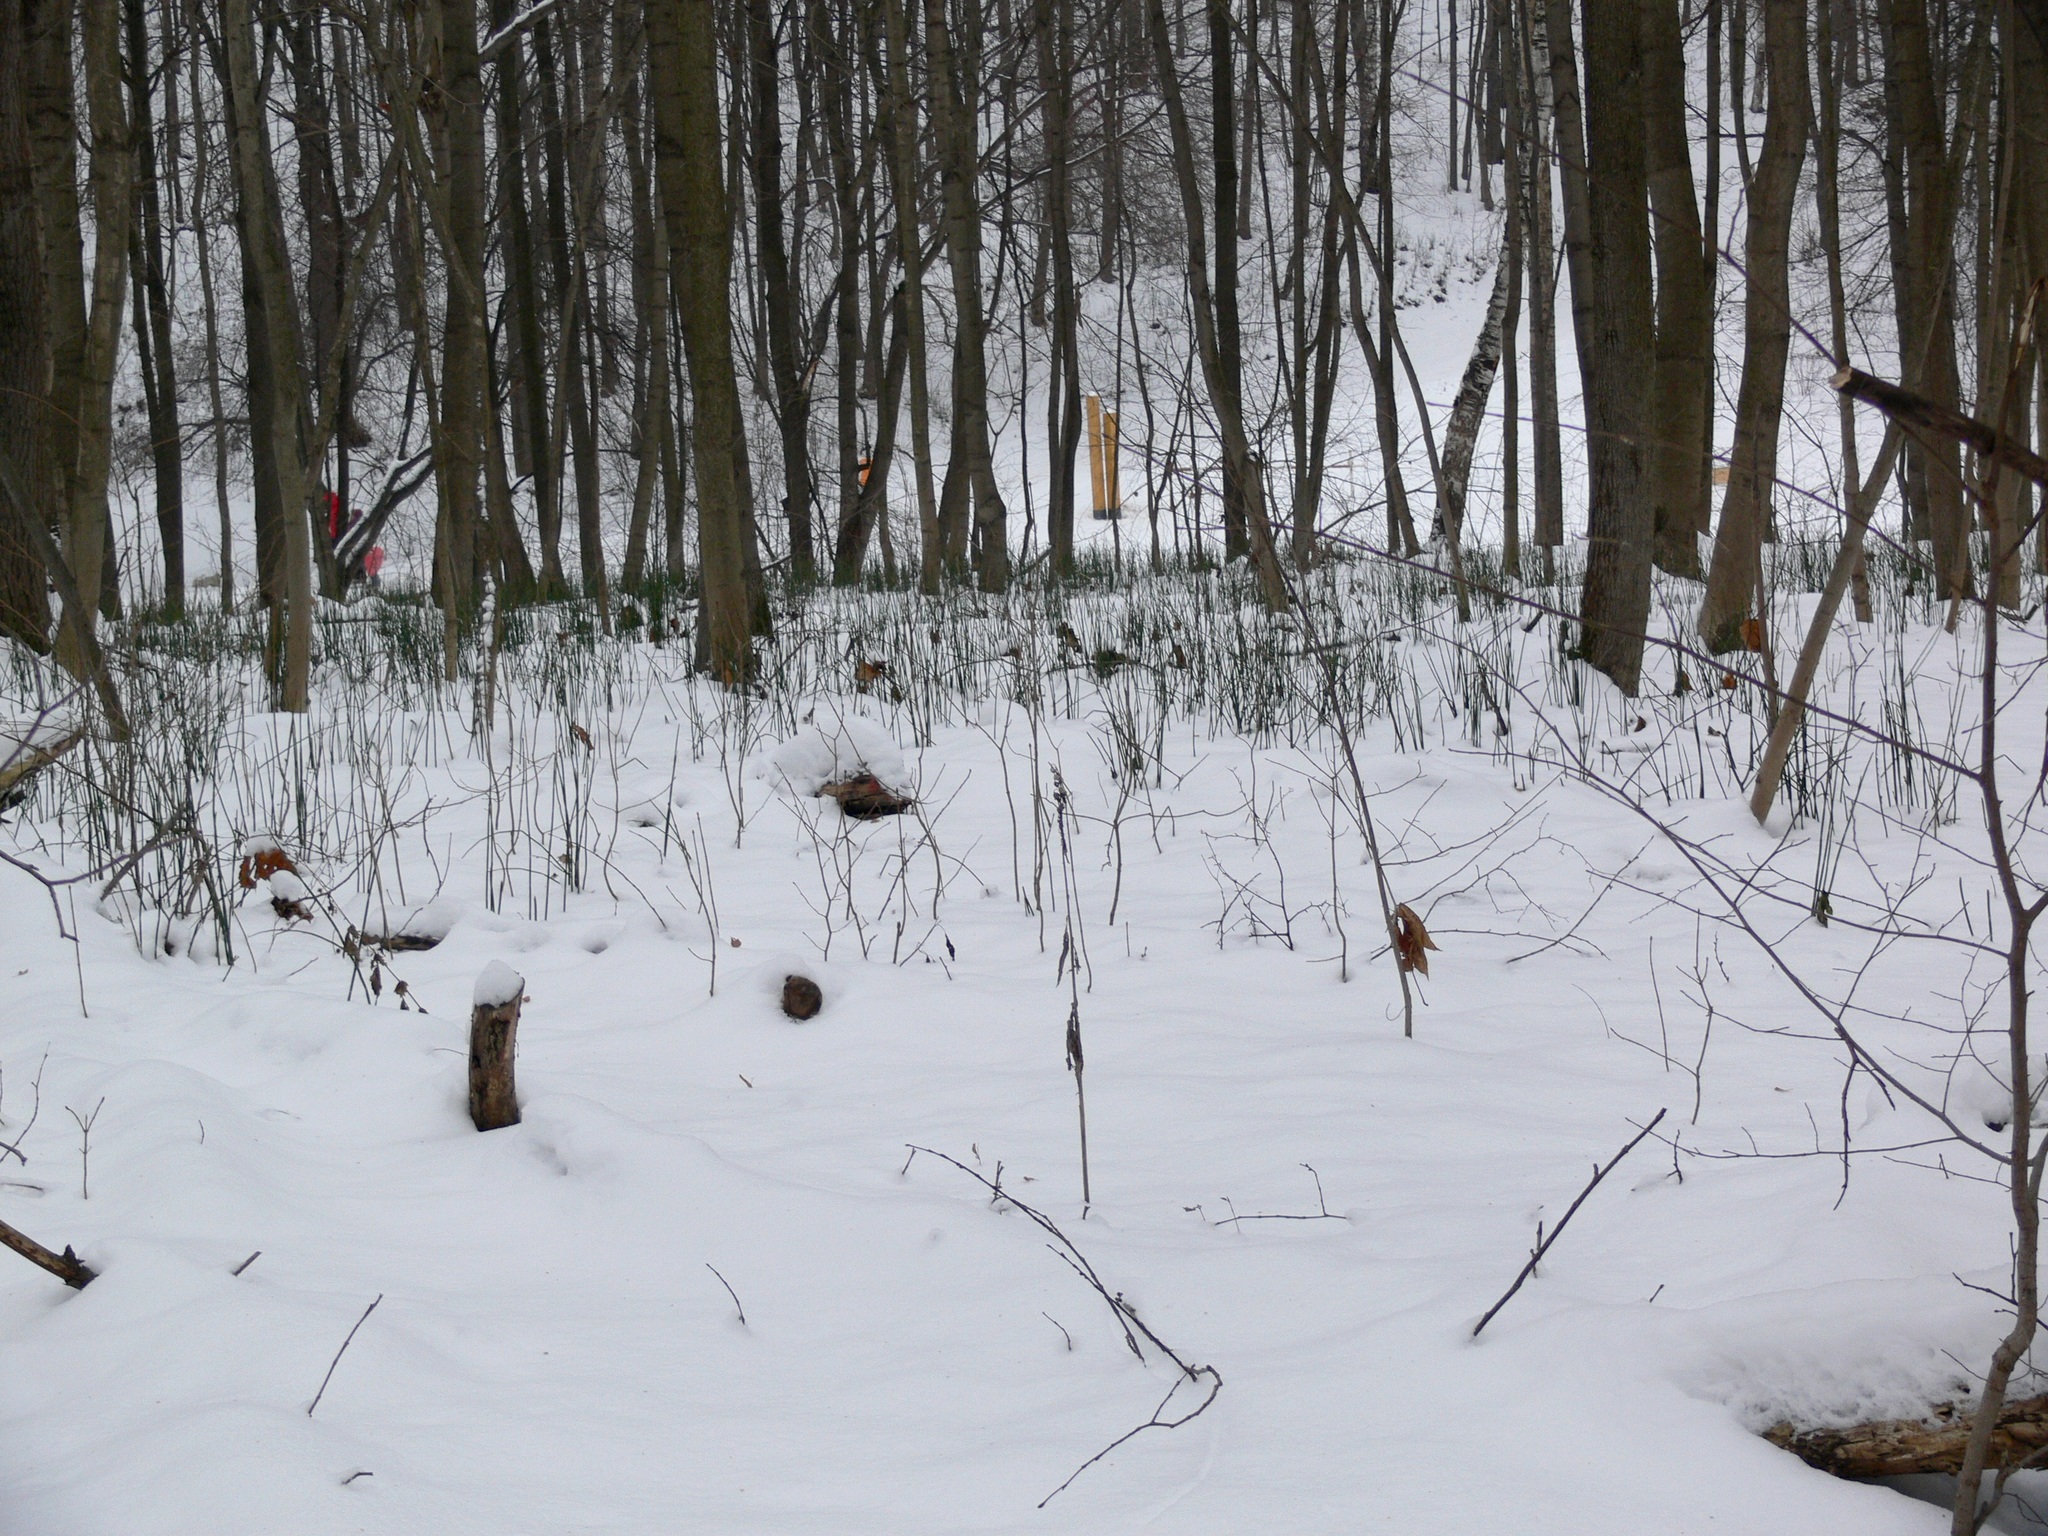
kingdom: Plantae
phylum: Tracheophyta
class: Polypodiopsida
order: Equisetales
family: Equisetaceae
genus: Equisetum
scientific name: Equisetum hyemale
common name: Rough horsetail
